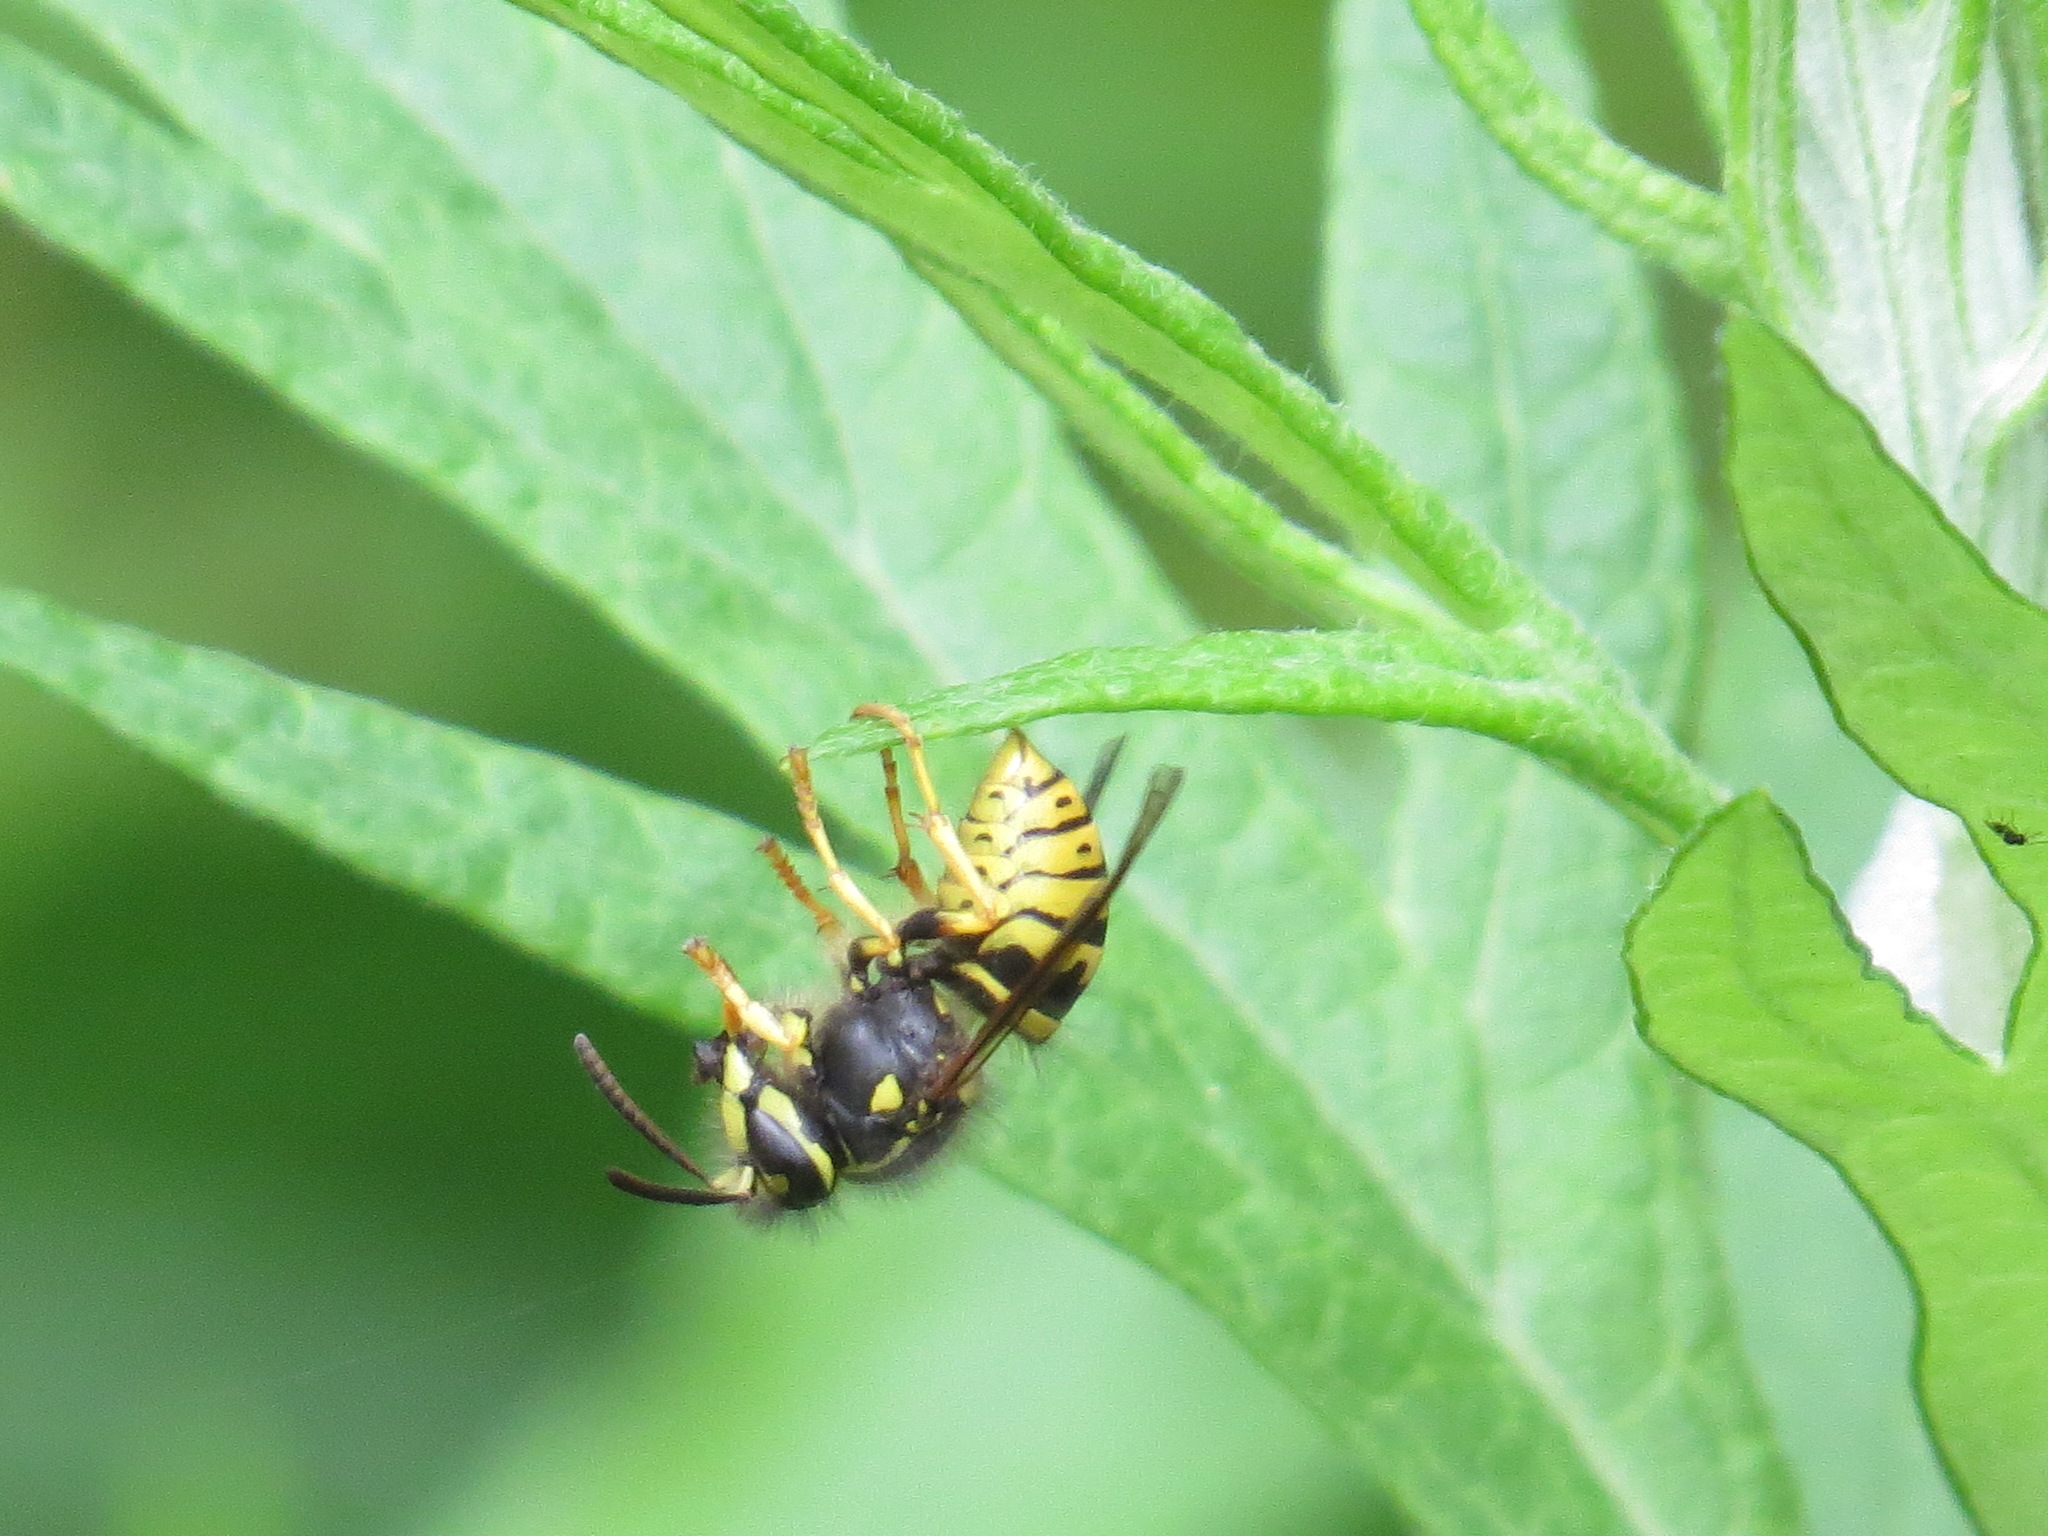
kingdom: Animalia
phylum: Arthropoda
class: Insecta
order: Hymenoptera
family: Vespidae
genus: Dolichovespula
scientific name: Dolichovespula arenaria
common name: Aerial yellowjacket
